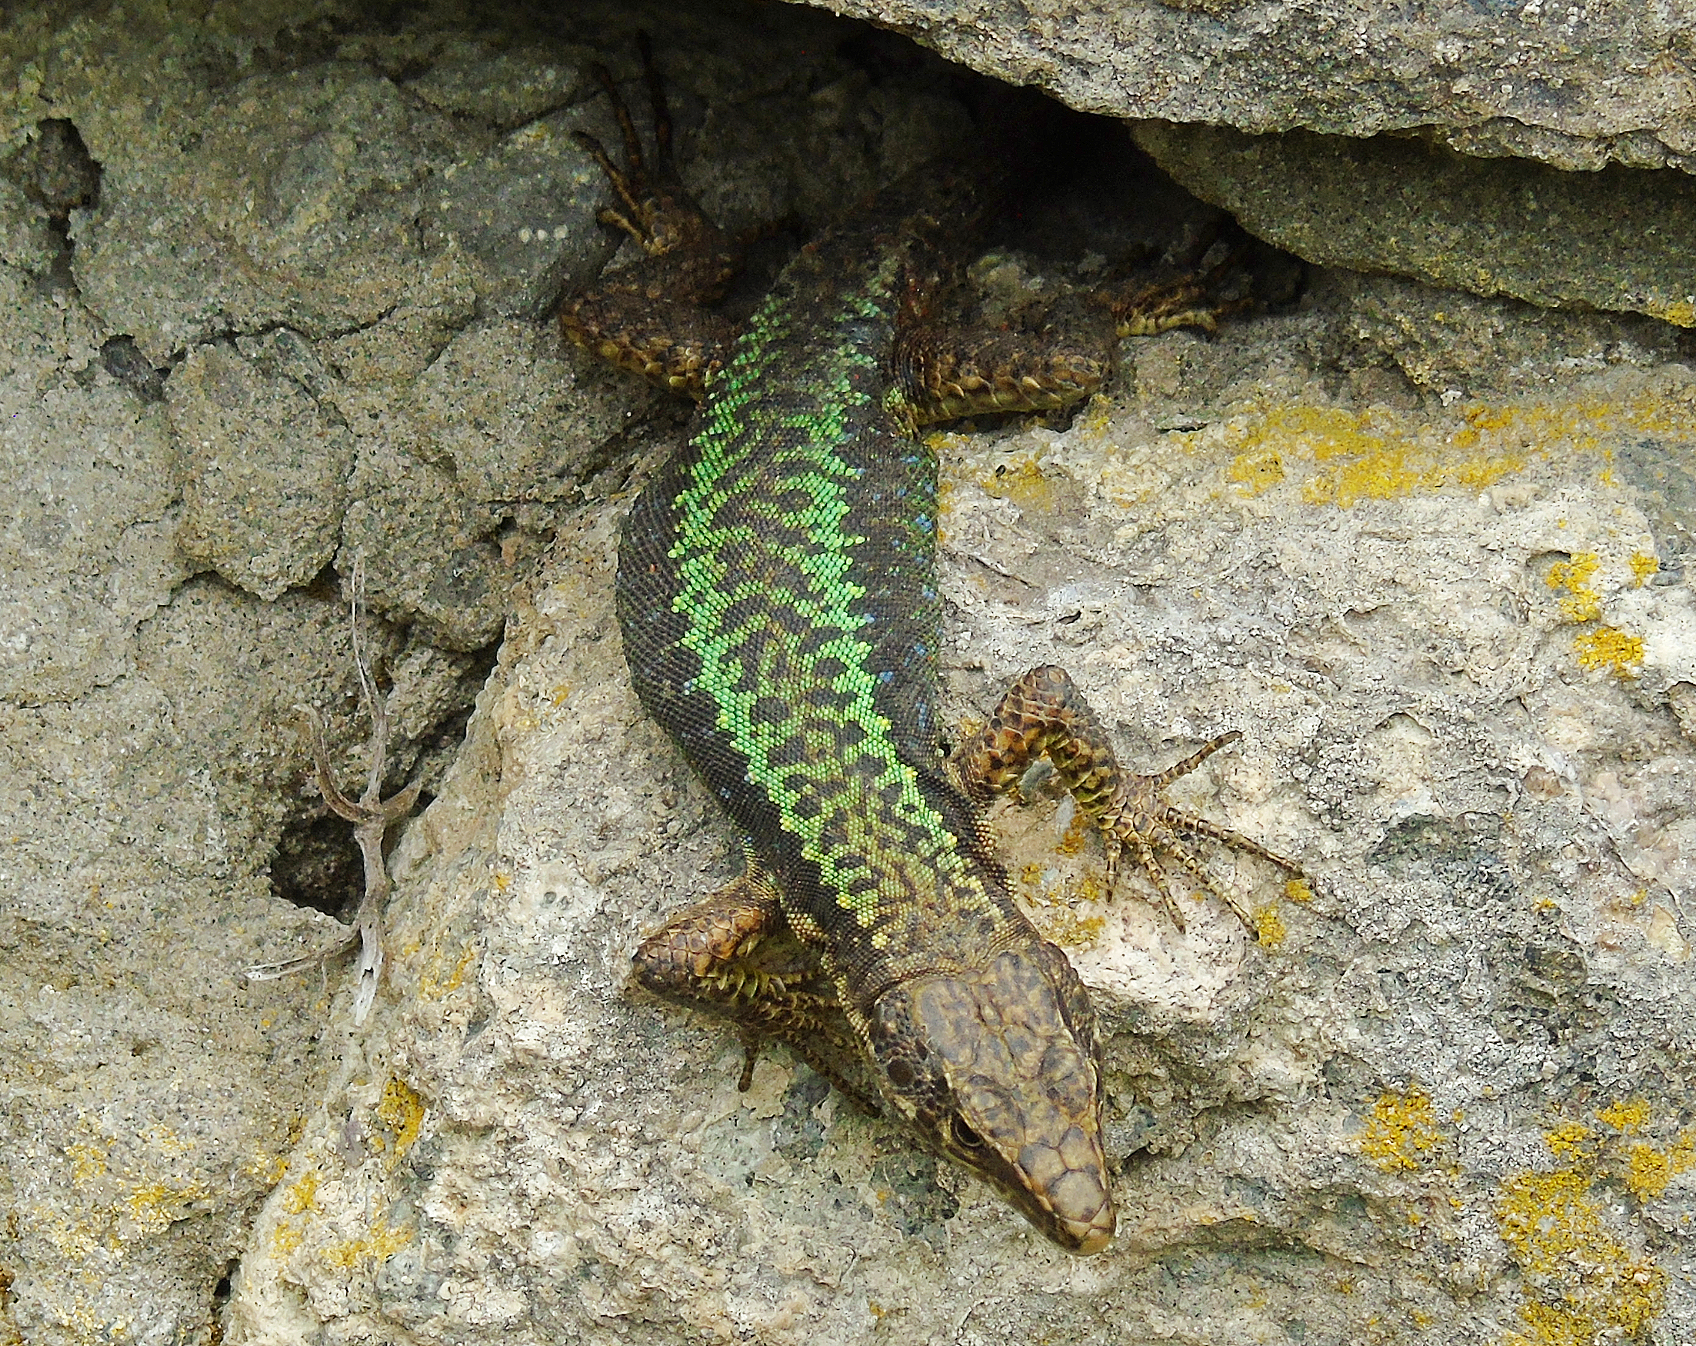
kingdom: Animalia
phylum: Chordata
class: Squamata
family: Lacertidae
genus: Darevskia
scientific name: Darevskia rudis
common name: Spiny-tailed lizard
